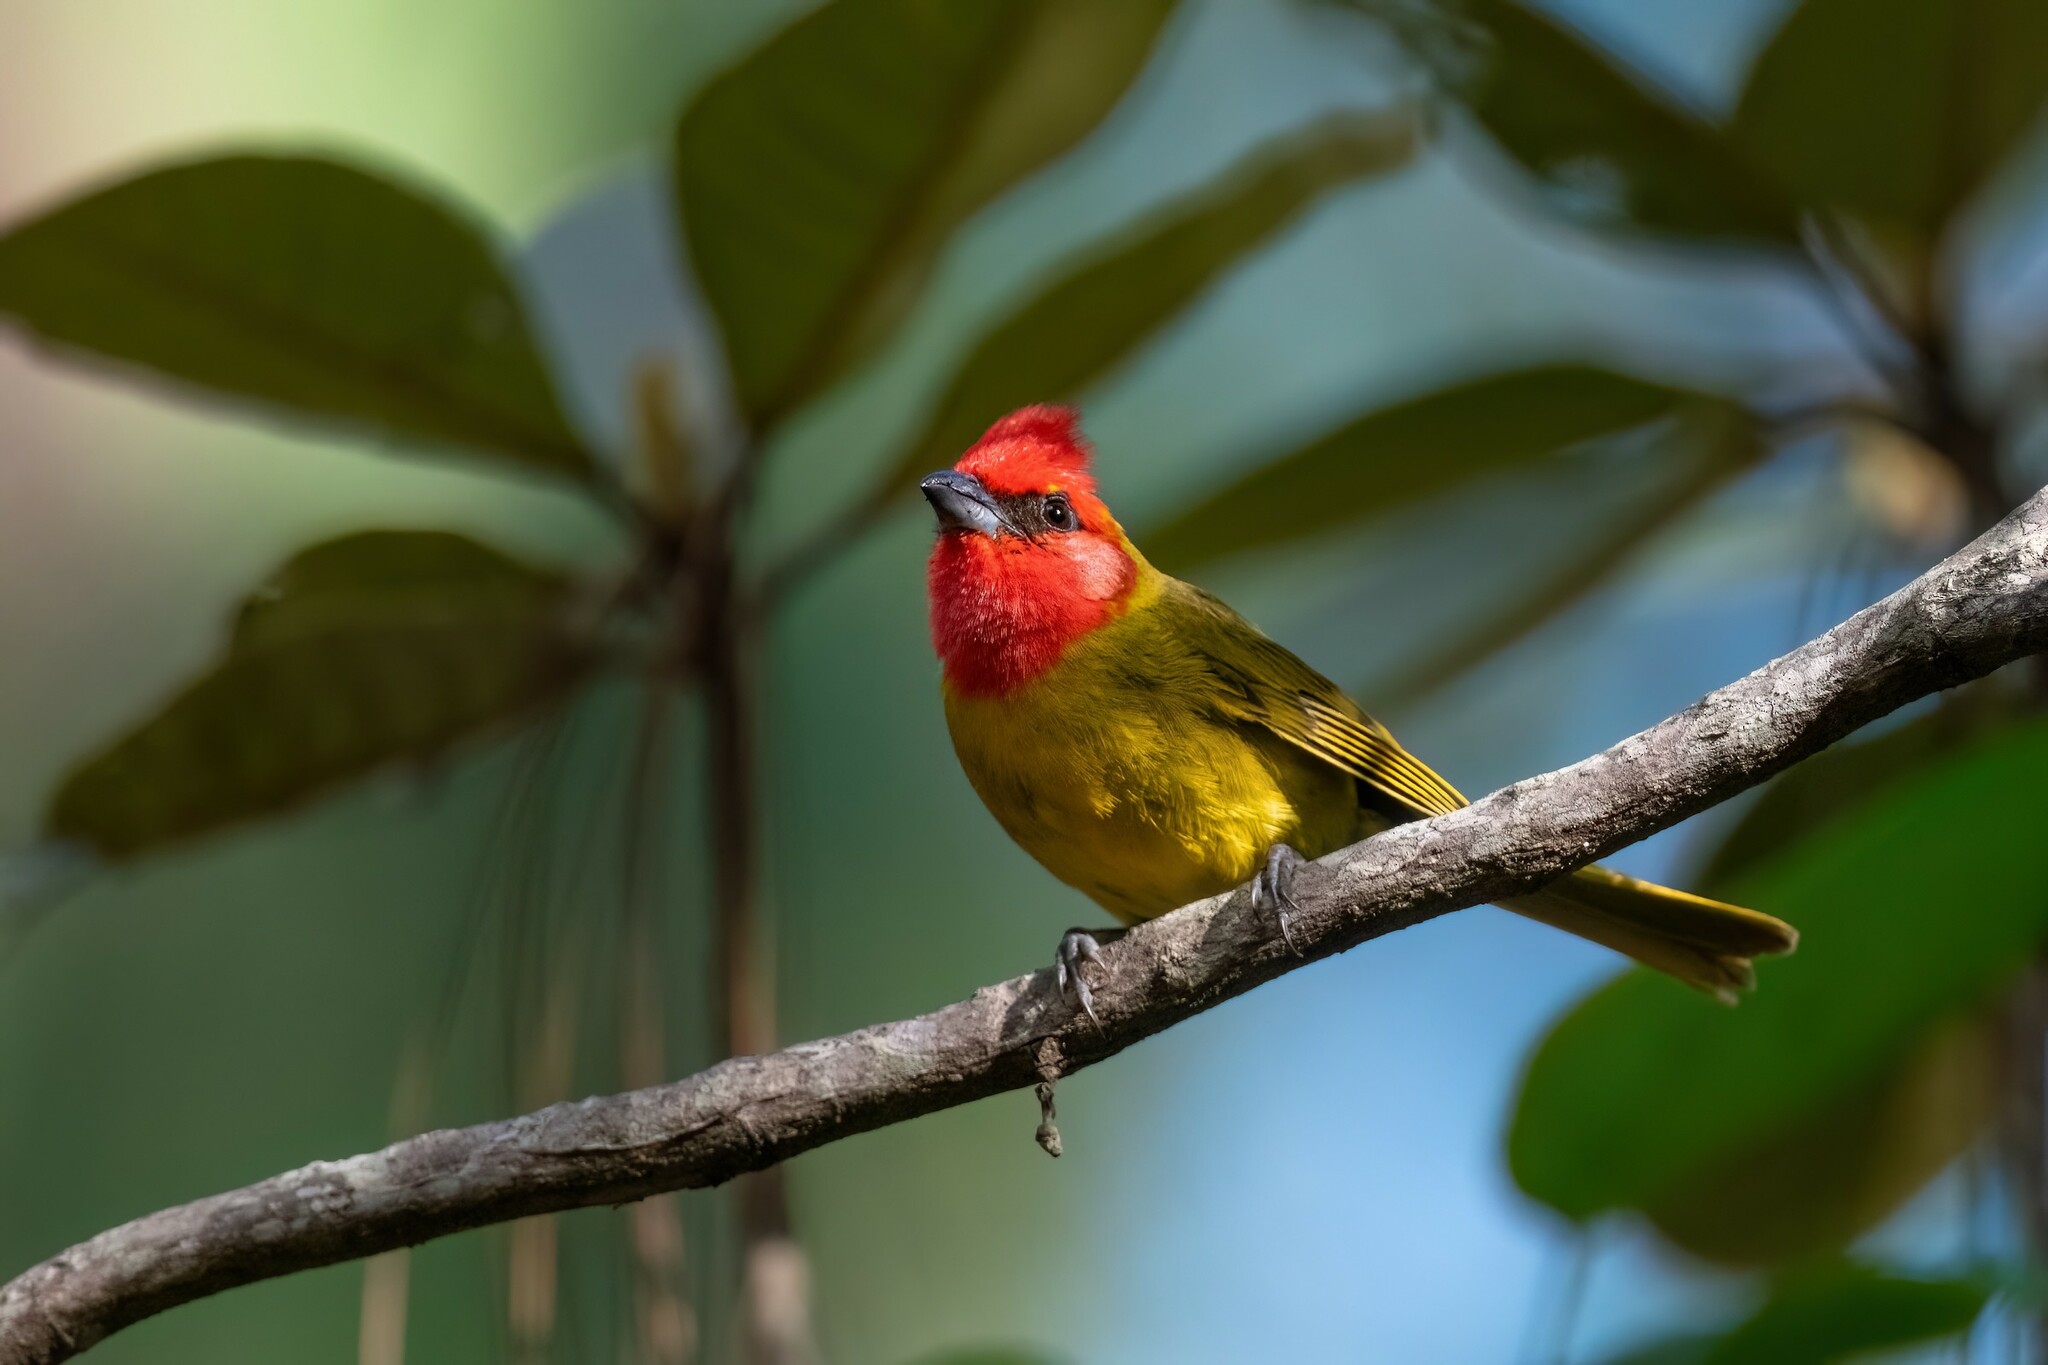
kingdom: Animalia
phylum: Chordata
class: Aves
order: Passeriformes
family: Cardinalidae
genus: Piranga
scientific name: Piranga erythrocephala
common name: Red-headed tanager
